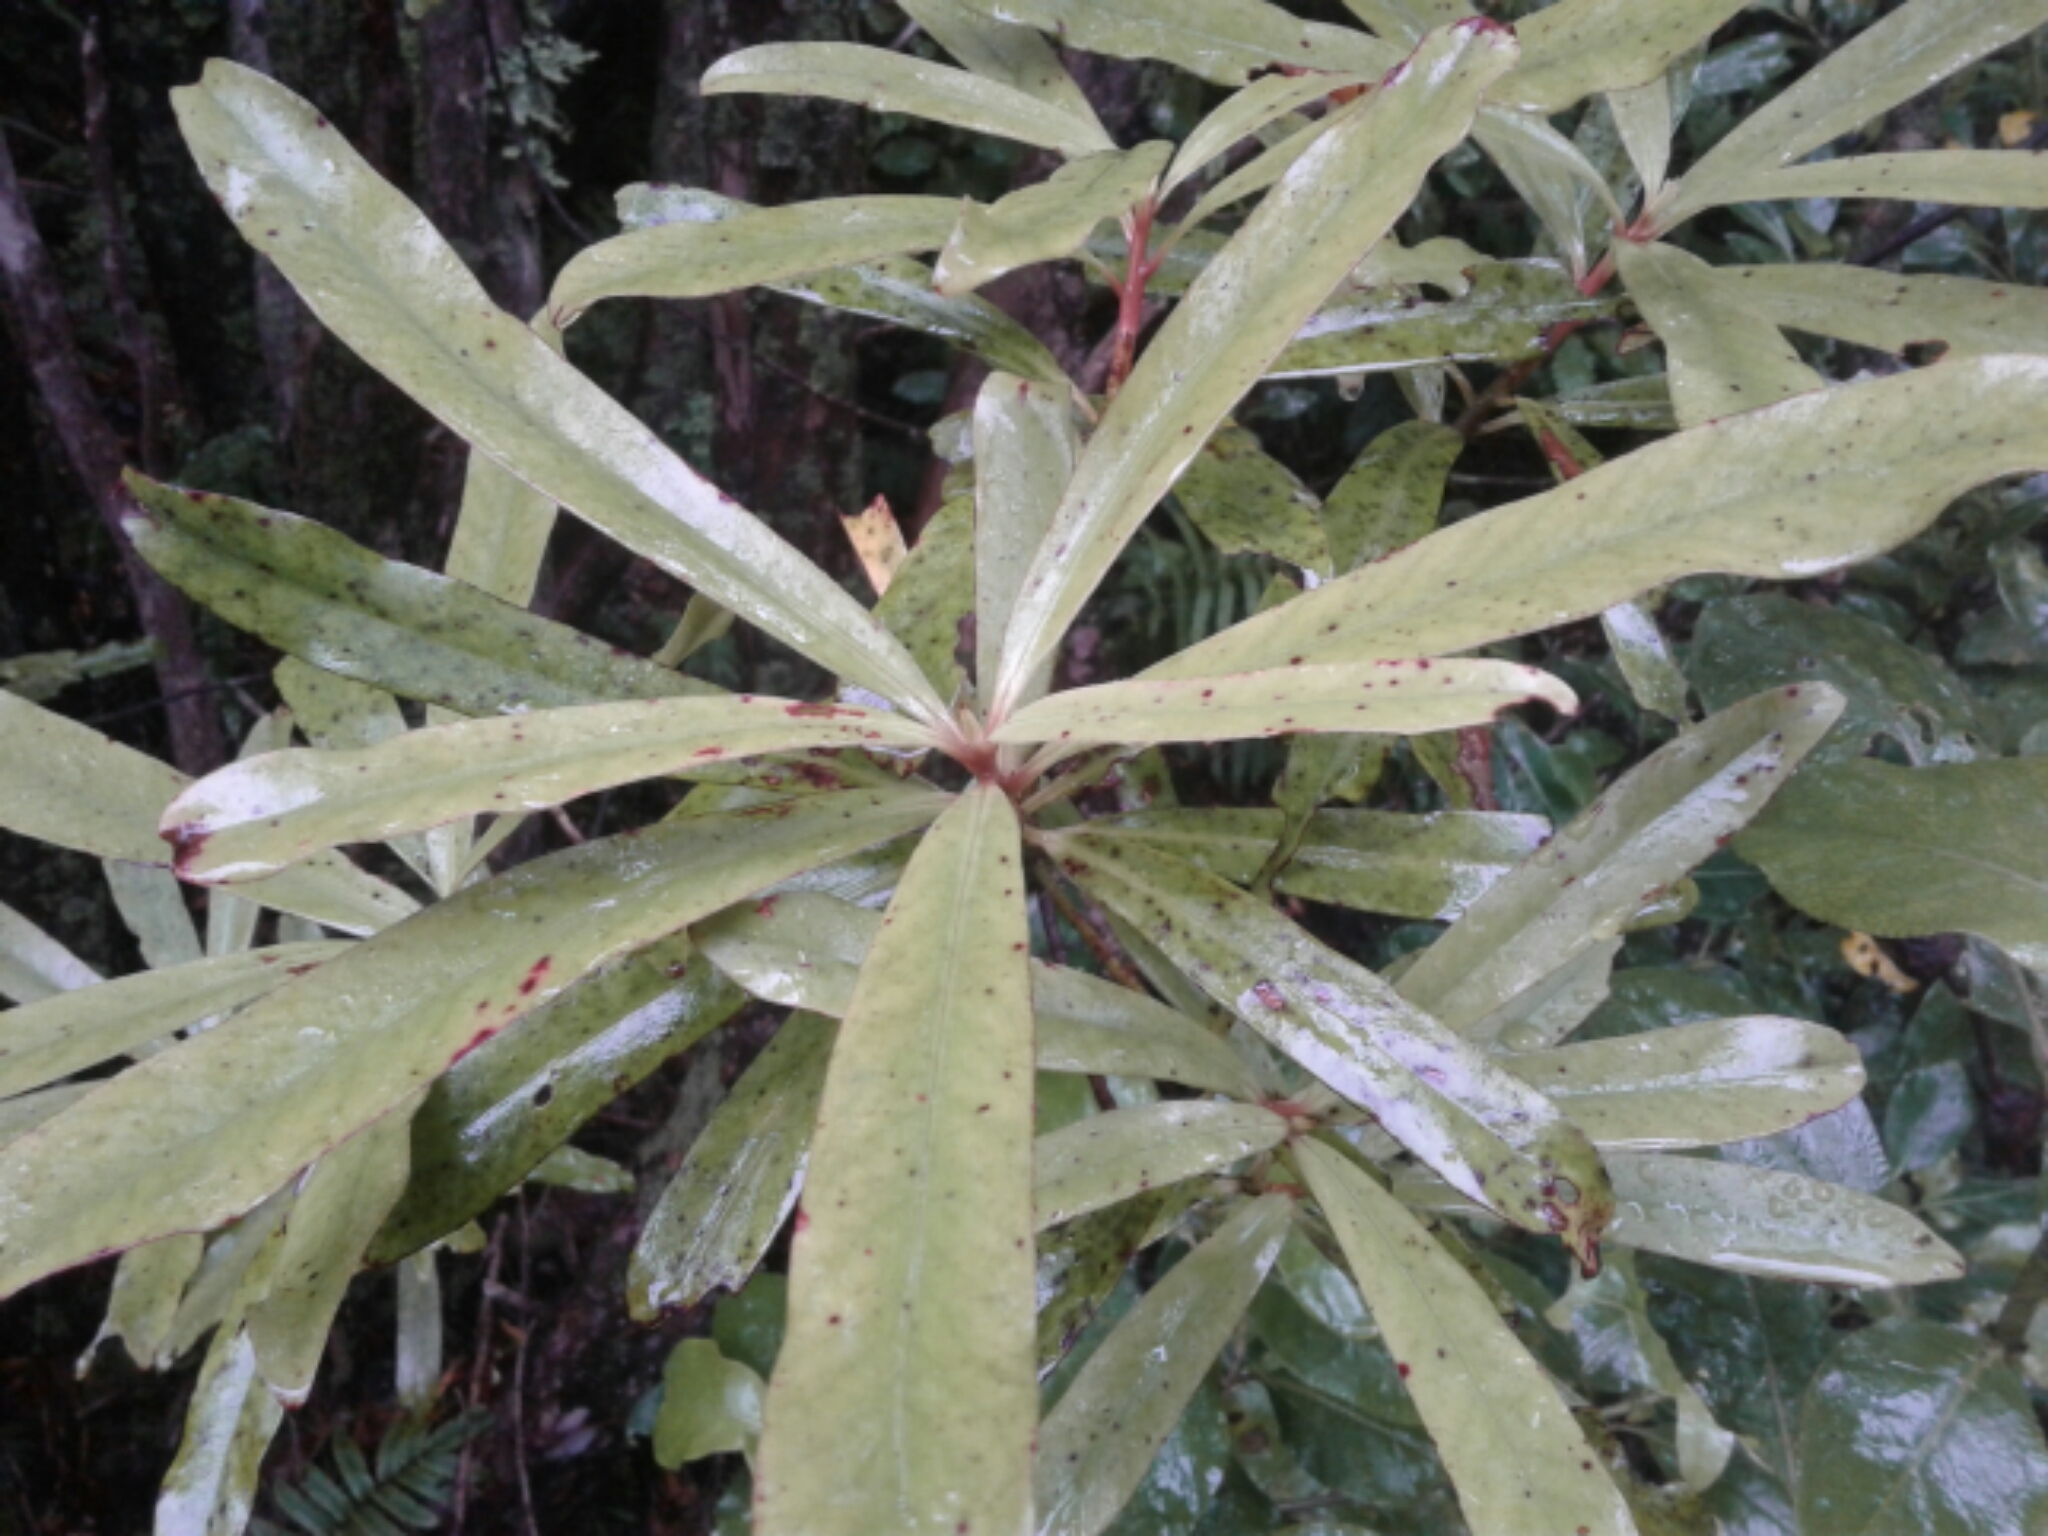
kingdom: Plantae
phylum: Tracheophyta
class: Magnoliopsida
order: Ericales
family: Primulaceae
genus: Myrsine
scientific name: Myrsine salicina
